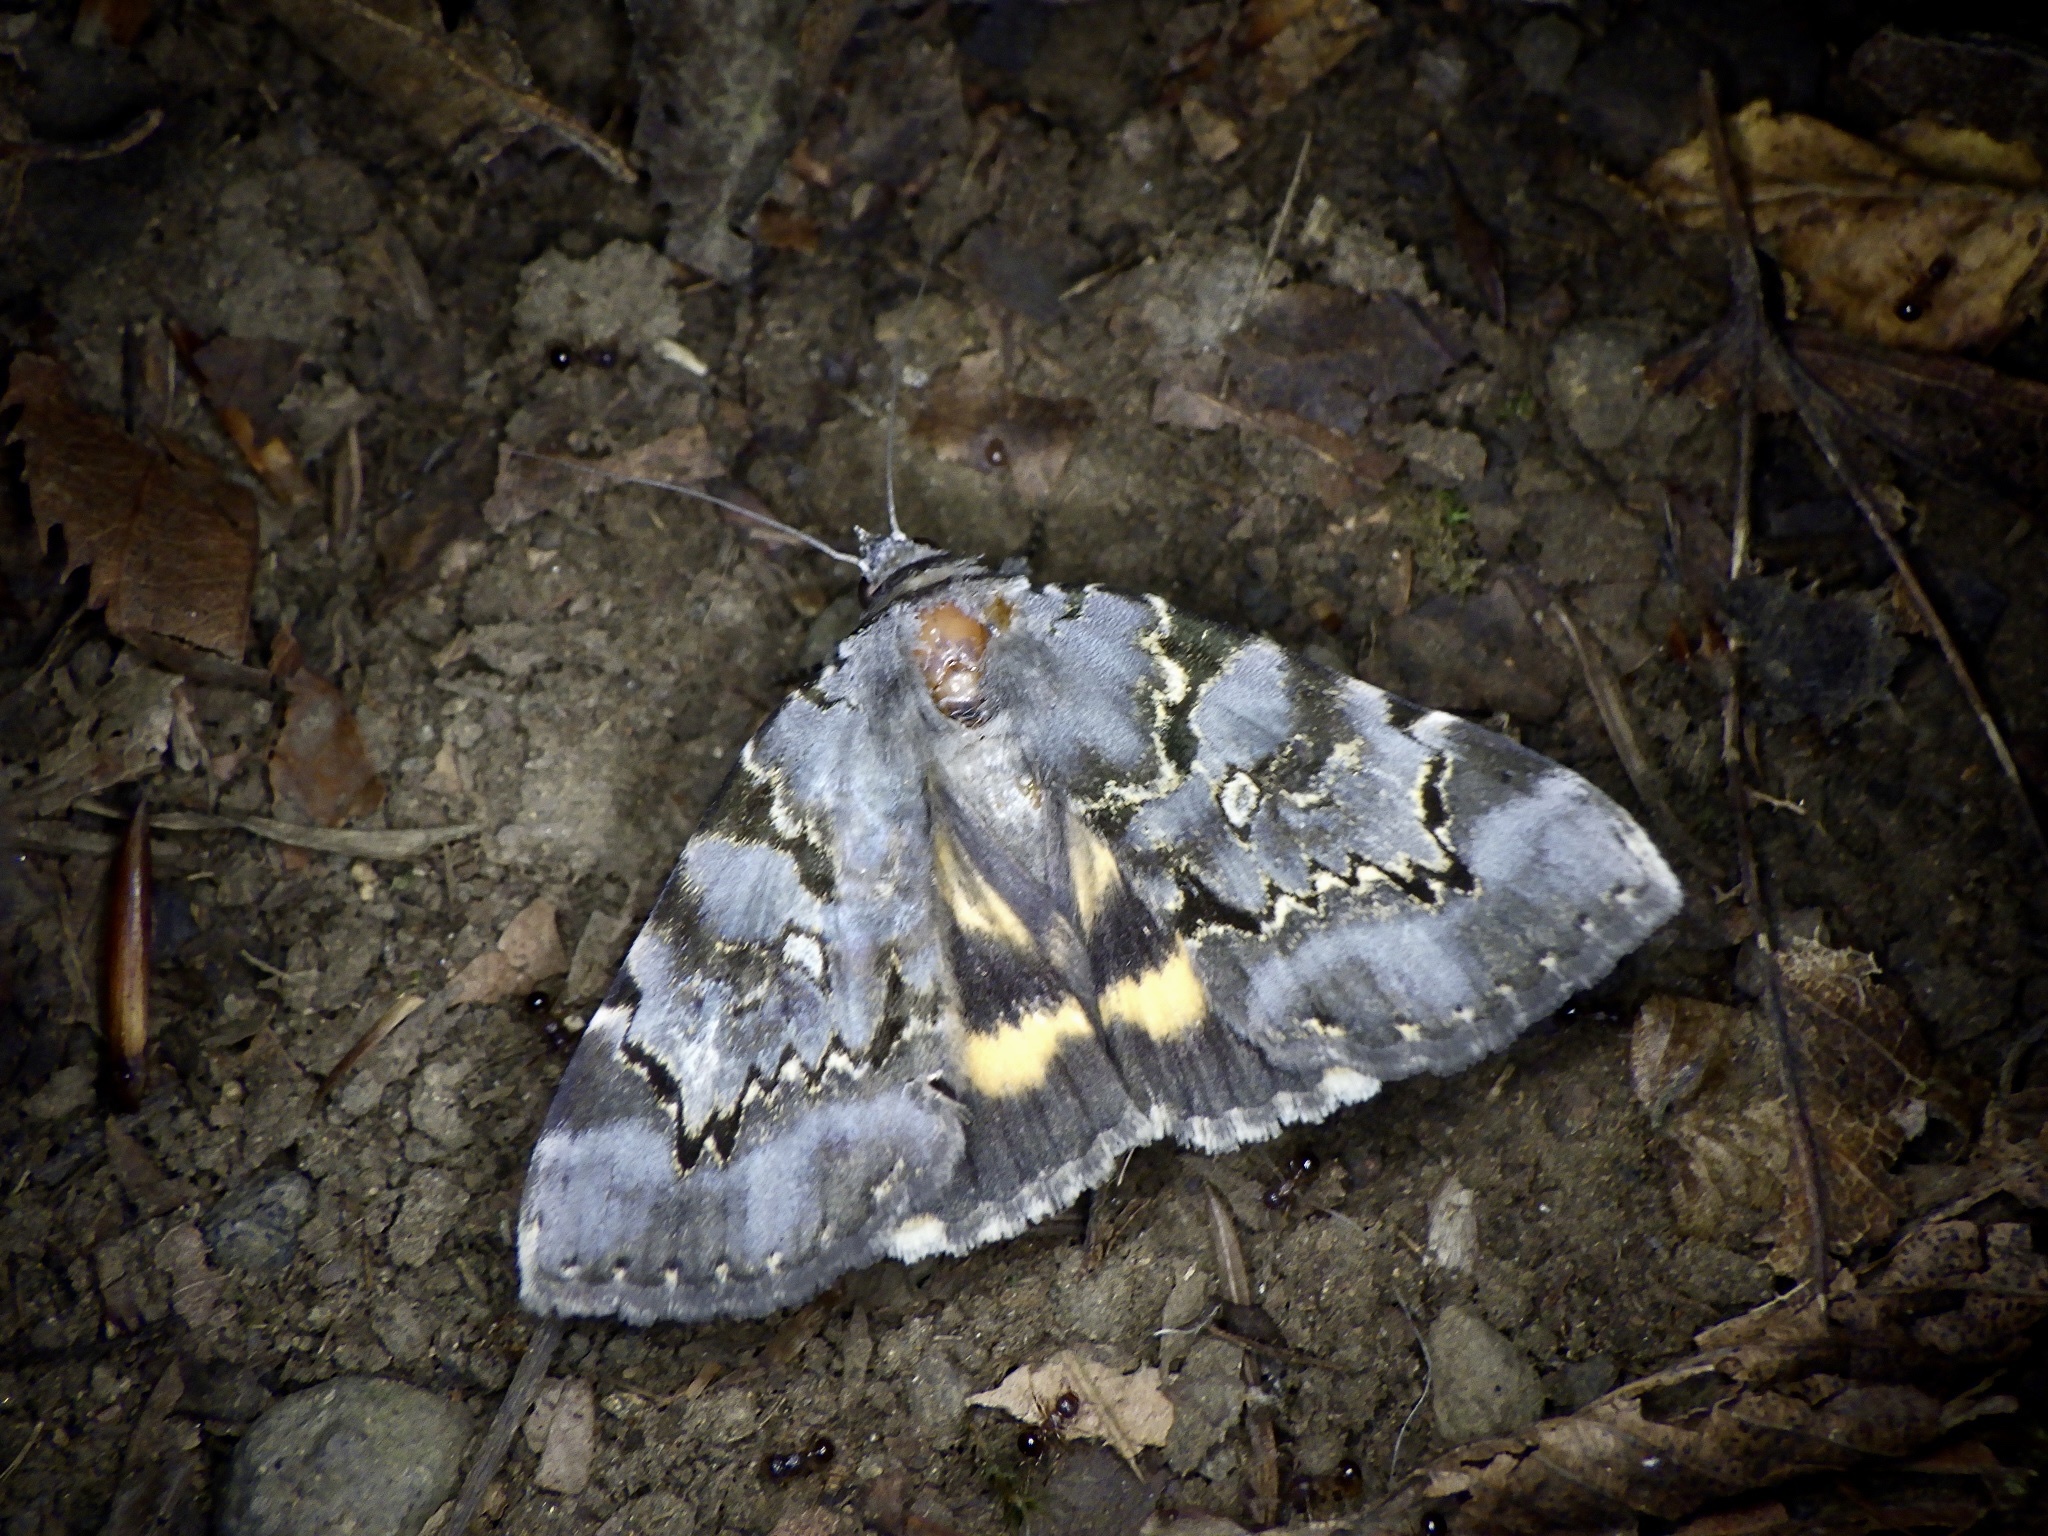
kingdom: Animalia
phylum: Arthropoda
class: Insecta
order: Lepidoptera
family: Erebidae
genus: Catocala
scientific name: Catocala columbina
